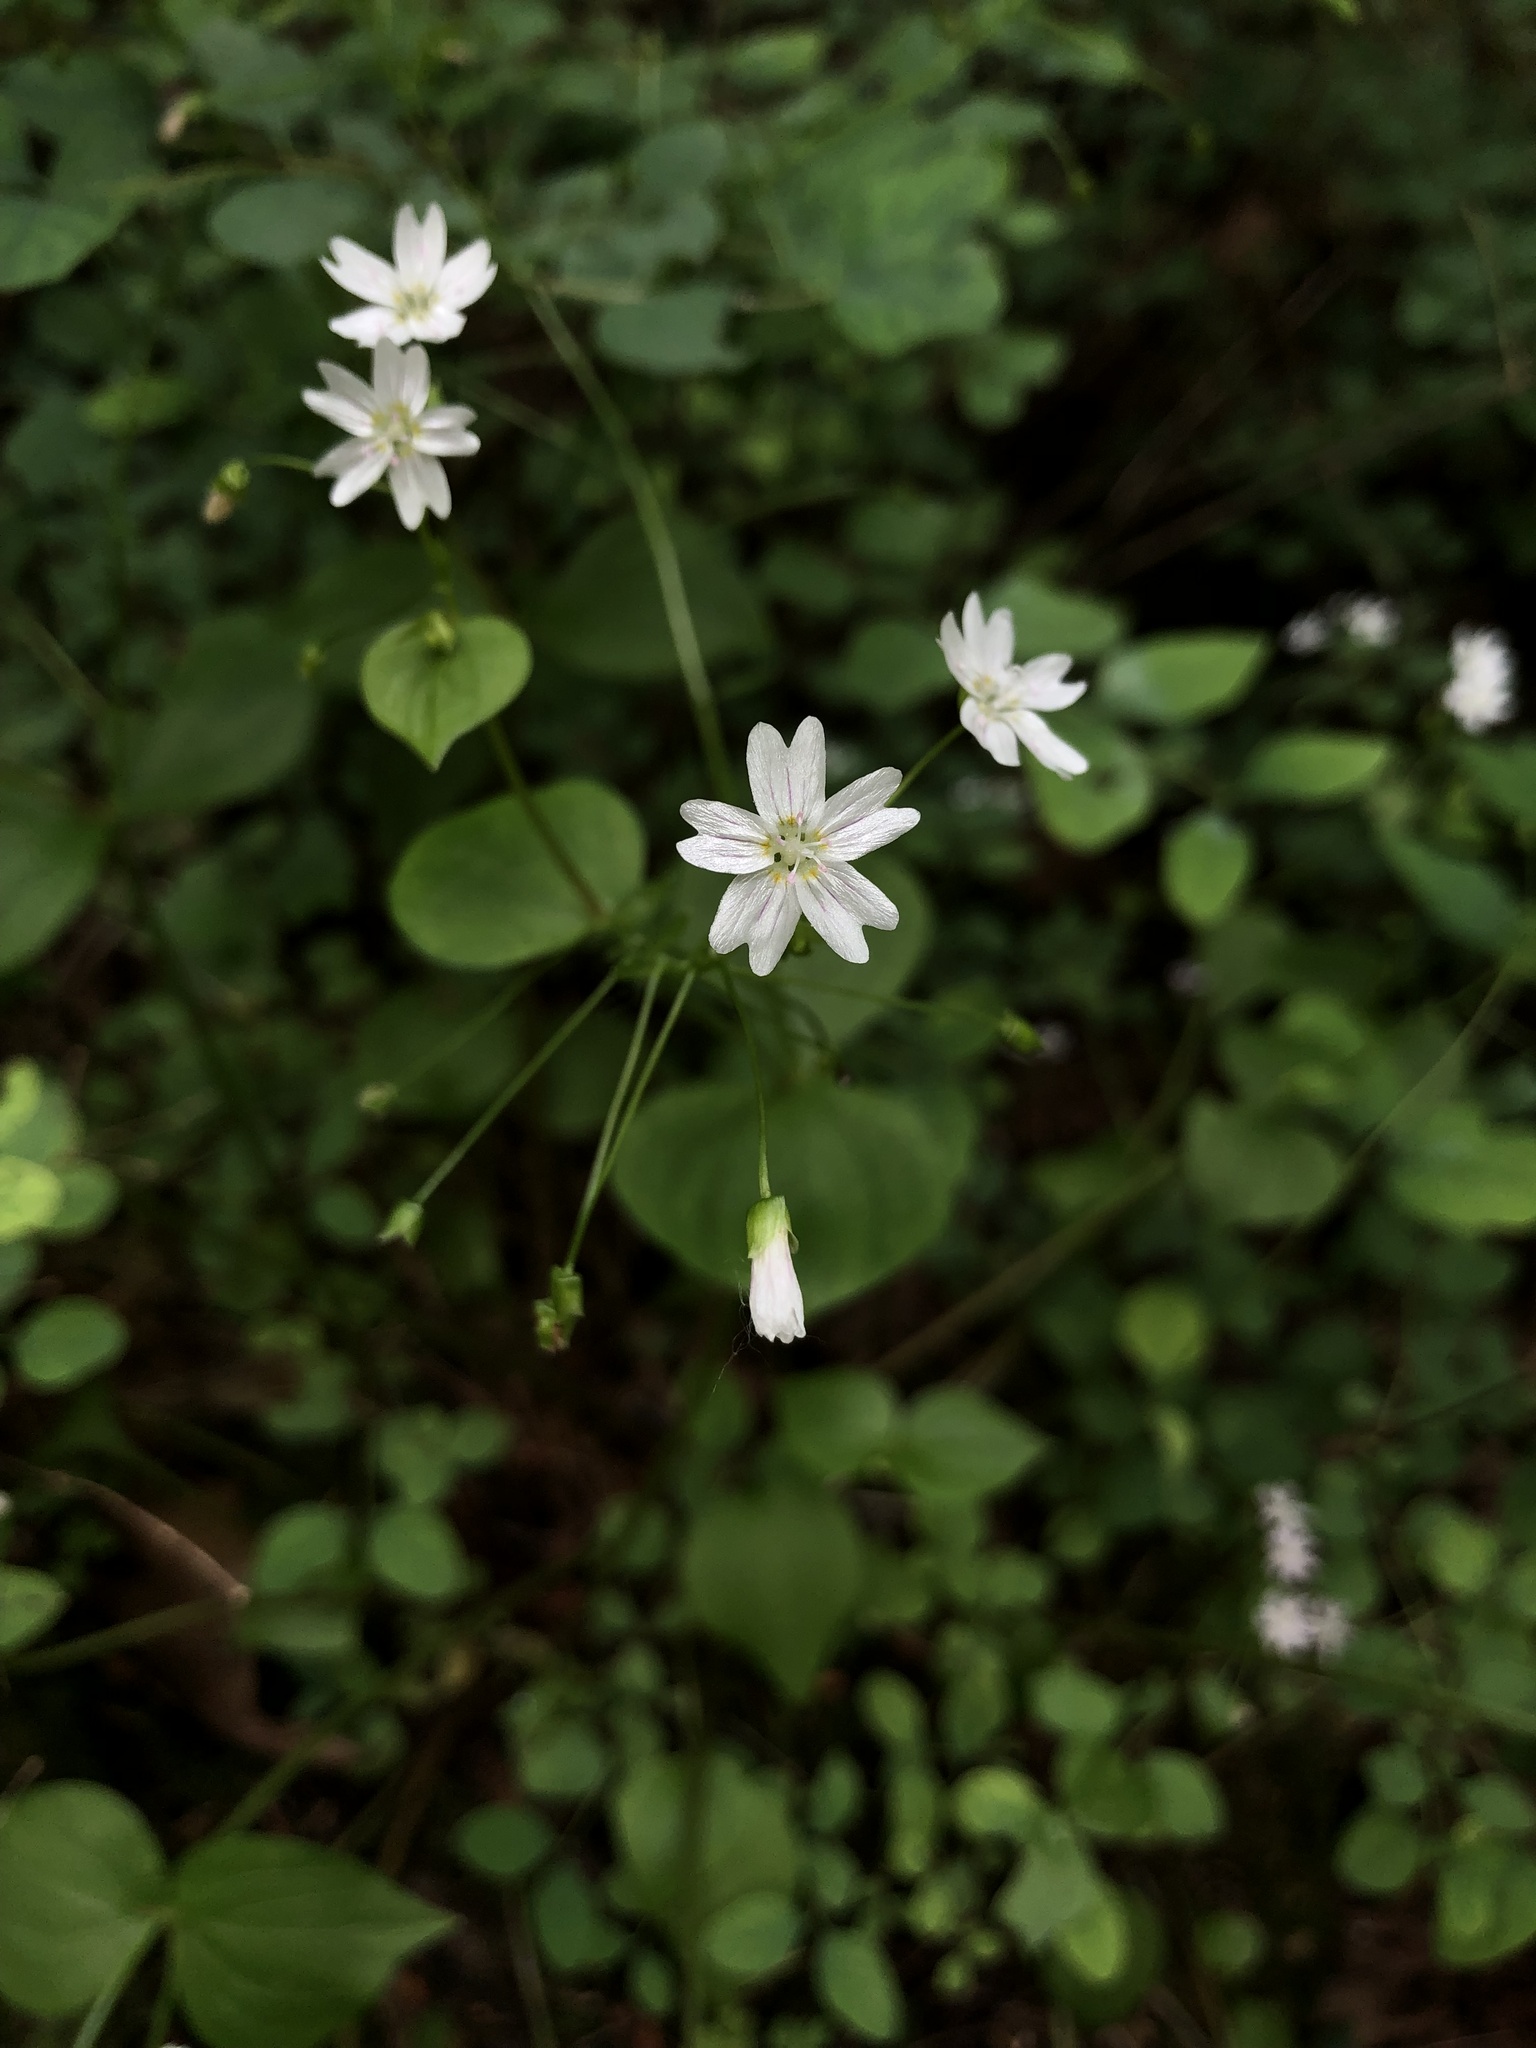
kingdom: Plantae
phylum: Tracheophyta
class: Magnoliopsida
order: Caryophyllales
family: Montiaceae
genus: Claytonia
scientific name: Claytonia sibirica
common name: Pink purslane
